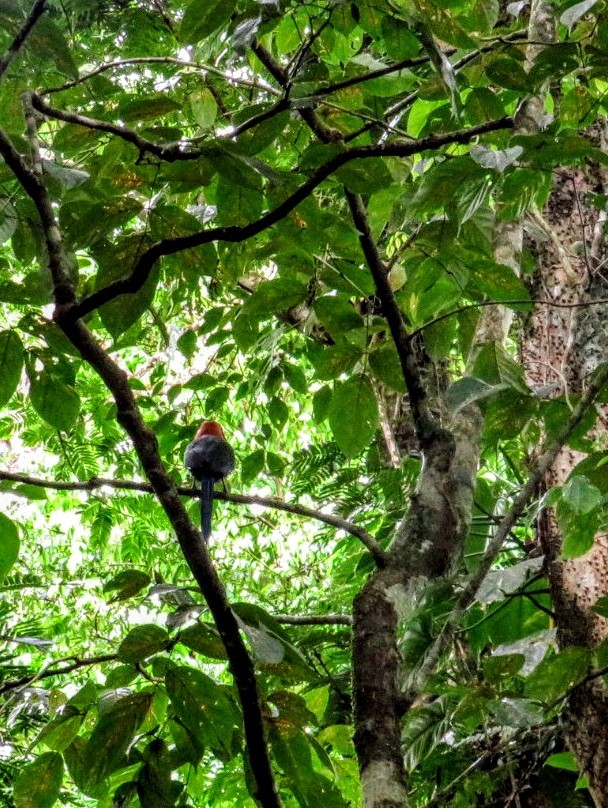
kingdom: Animalia
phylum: Chordata
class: Aves
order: Coraciiformes
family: Momotidae
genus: Baryphthengus
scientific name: Baryphthengus martii
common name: Rufous motmot
